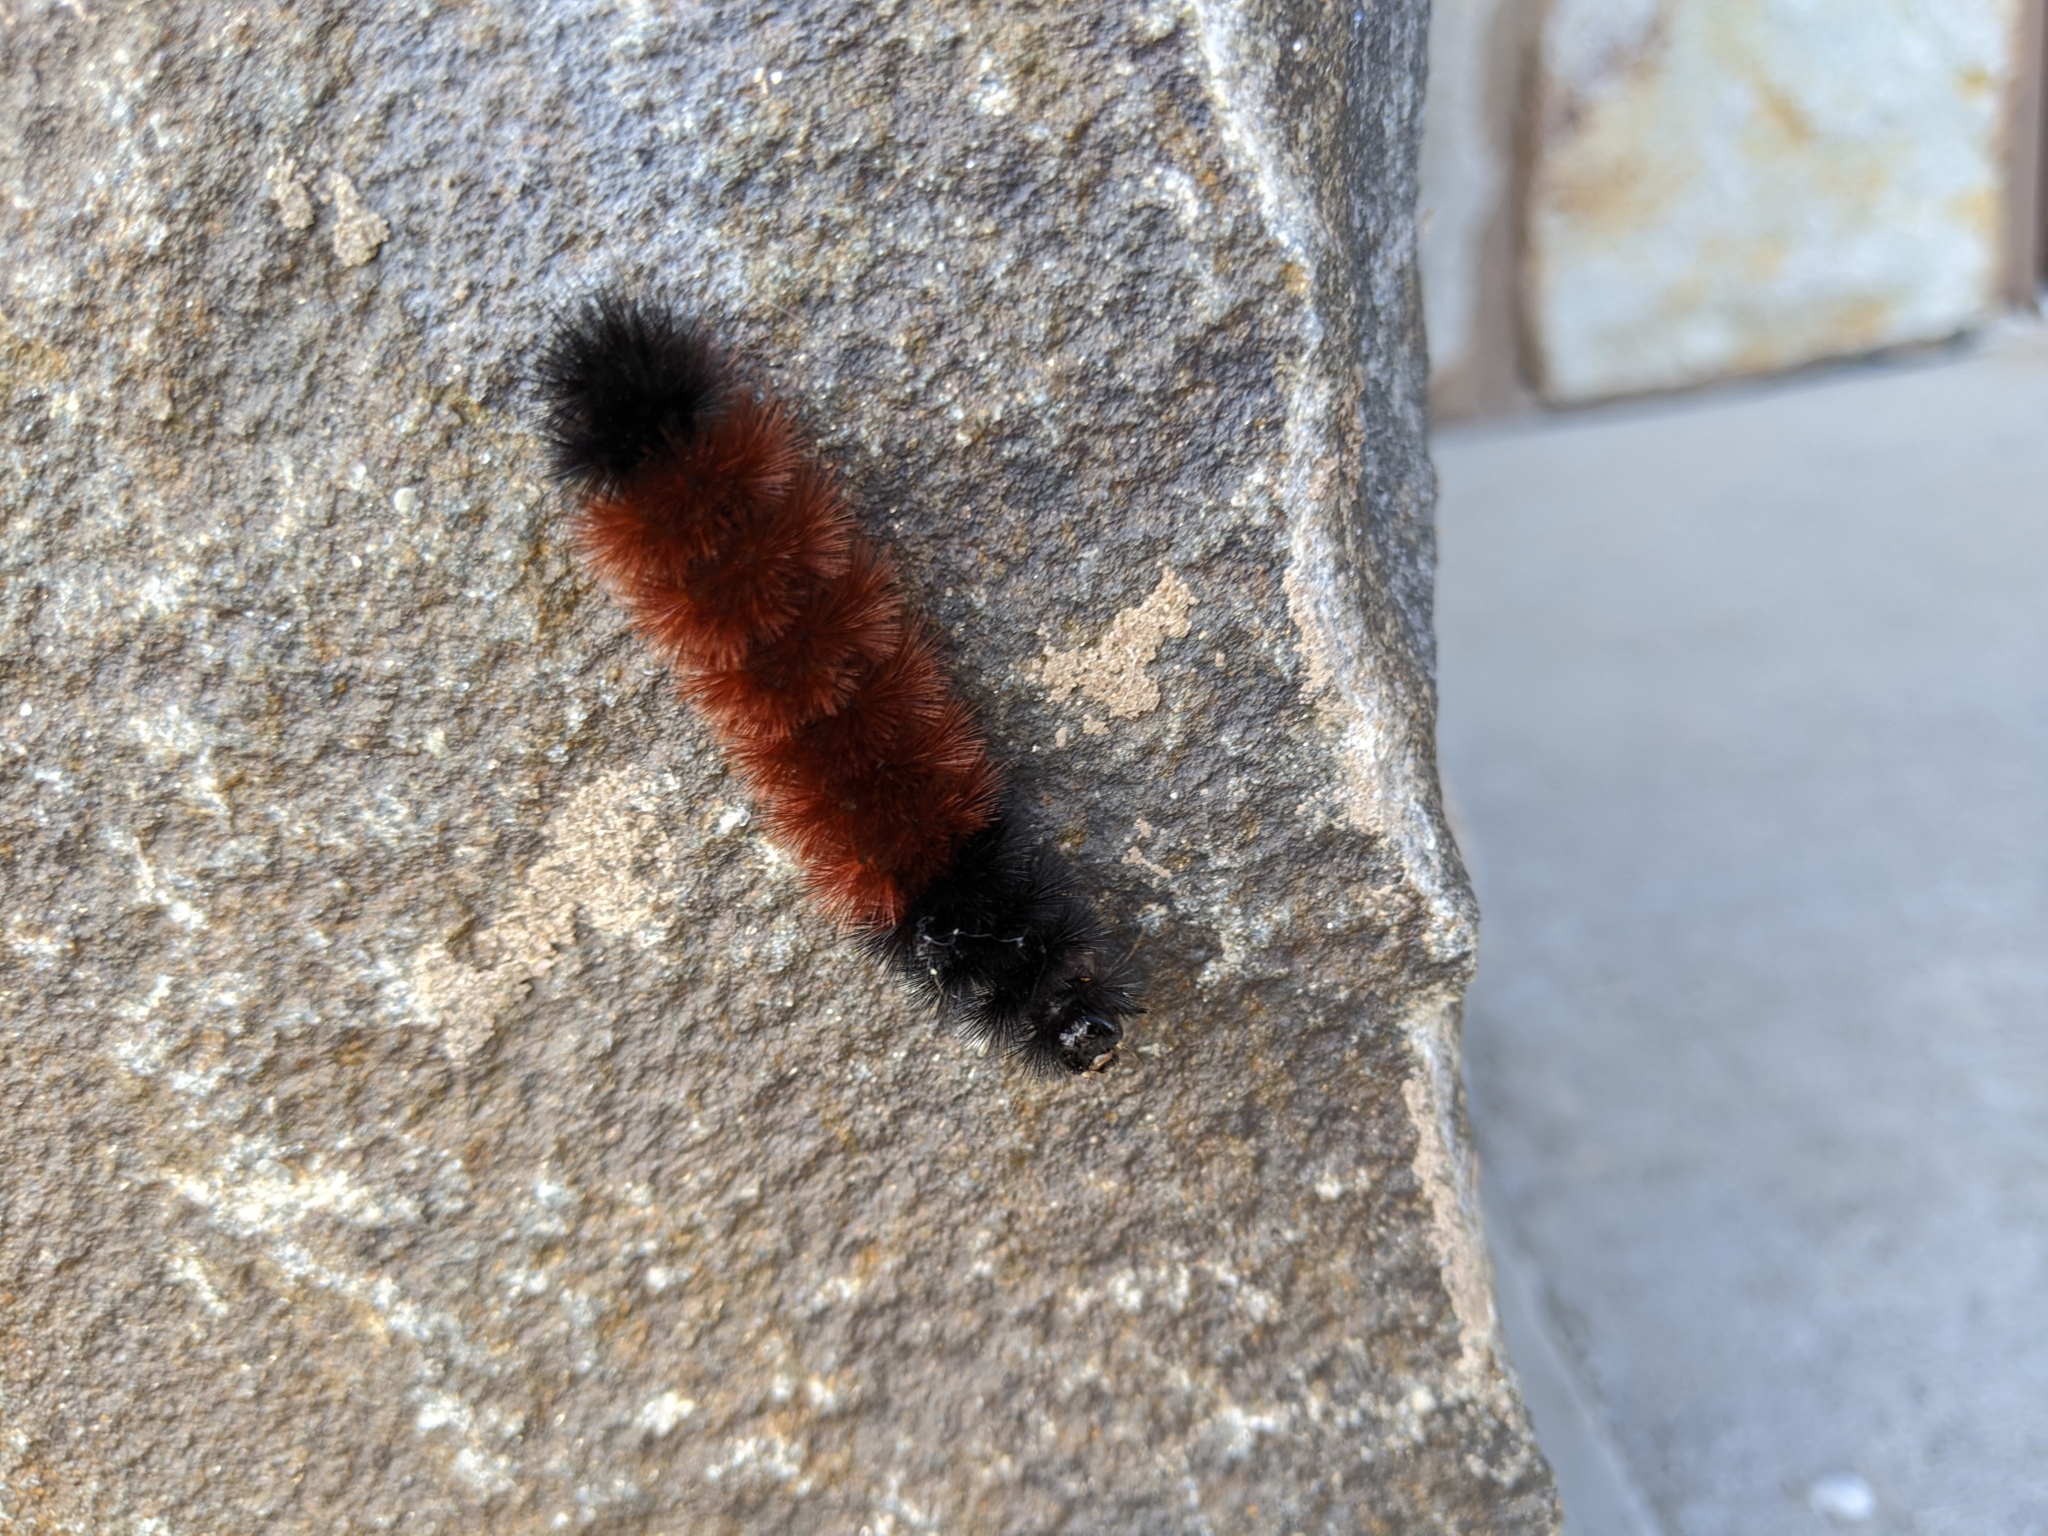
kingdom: Animalia
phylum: Arthropoda
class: Insecta
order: Lepidoptera
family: Erebidae
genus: Pyrrharctia
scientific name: Pyrrharctia isabella
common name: Isabella tiger moth
